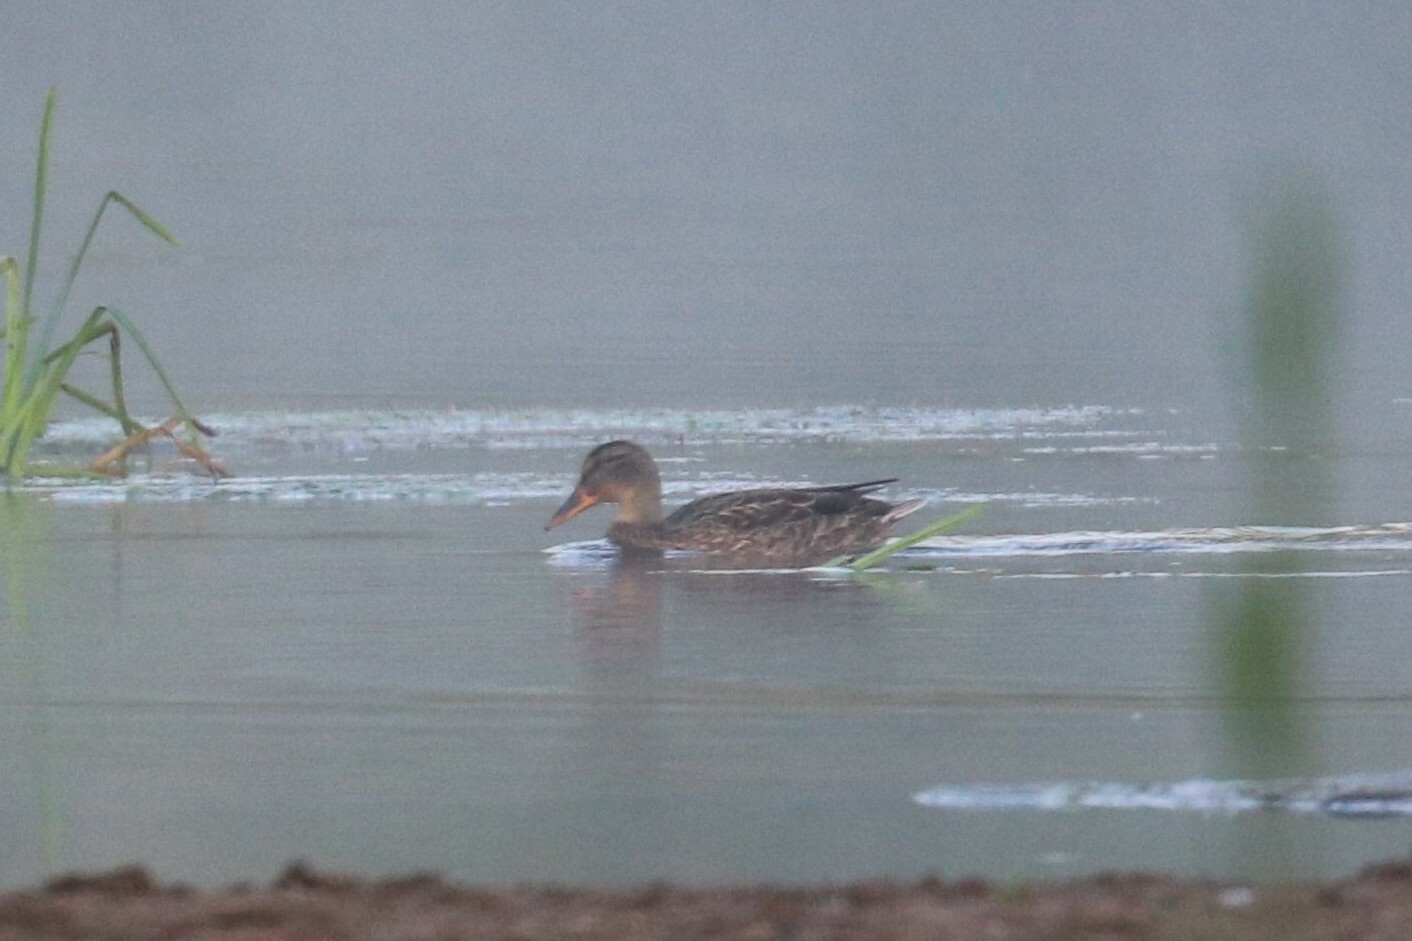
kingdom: Animalia
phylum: Chordata
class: Aves
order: Anseriformes
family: Anatidae
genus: Anas
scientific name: Anas platyrhynchos
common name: Mallard
